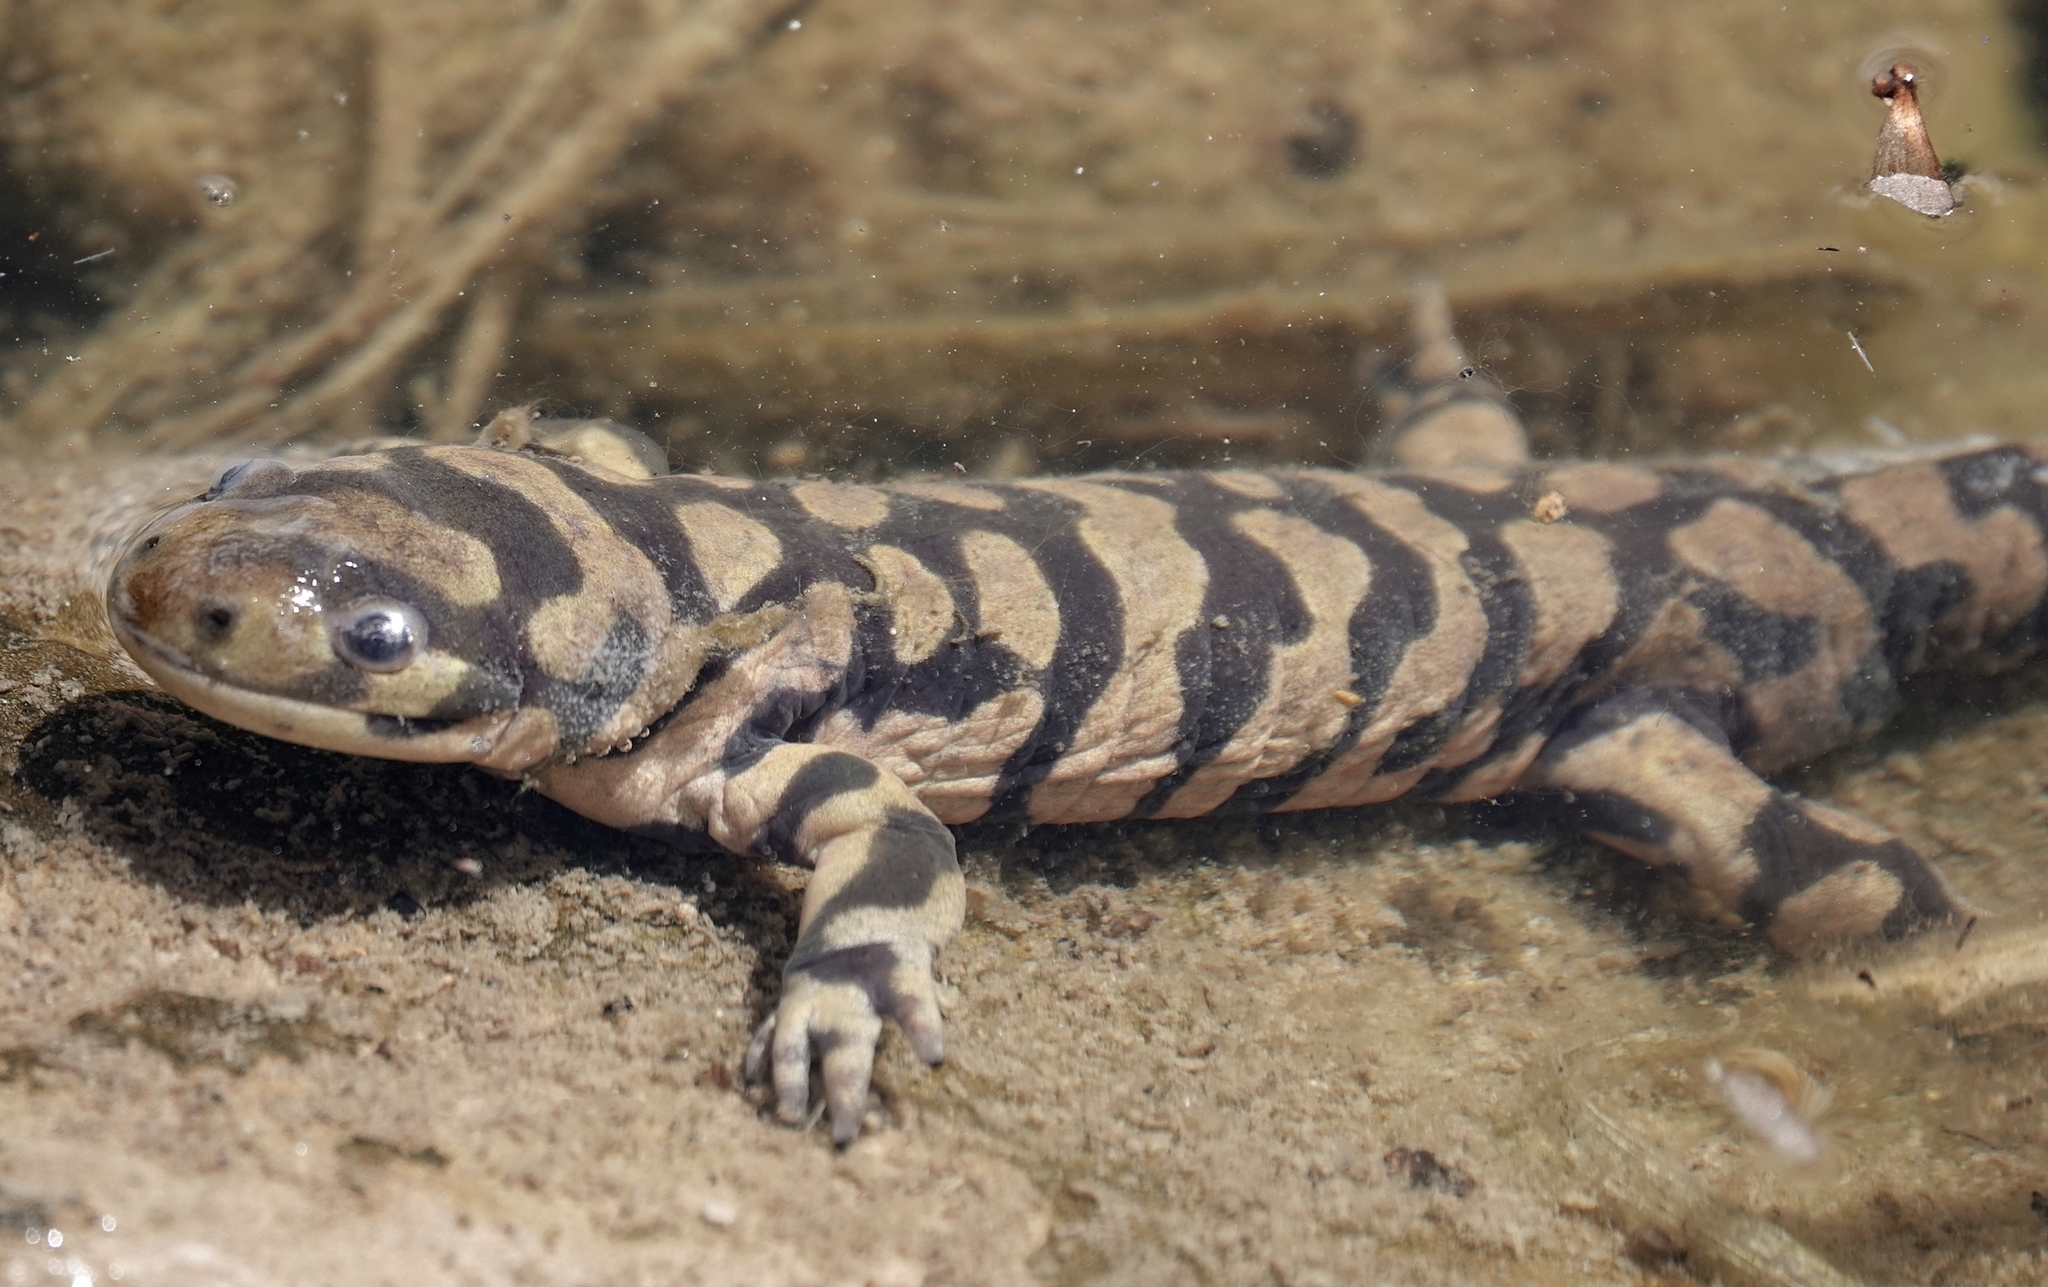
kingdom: Animalia
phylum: Chordata
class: Amphibia
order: Caudata
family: Ambystomatidae
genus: Ambystoma
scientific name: Ambystoma mavortium
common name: Western tiger salamander
